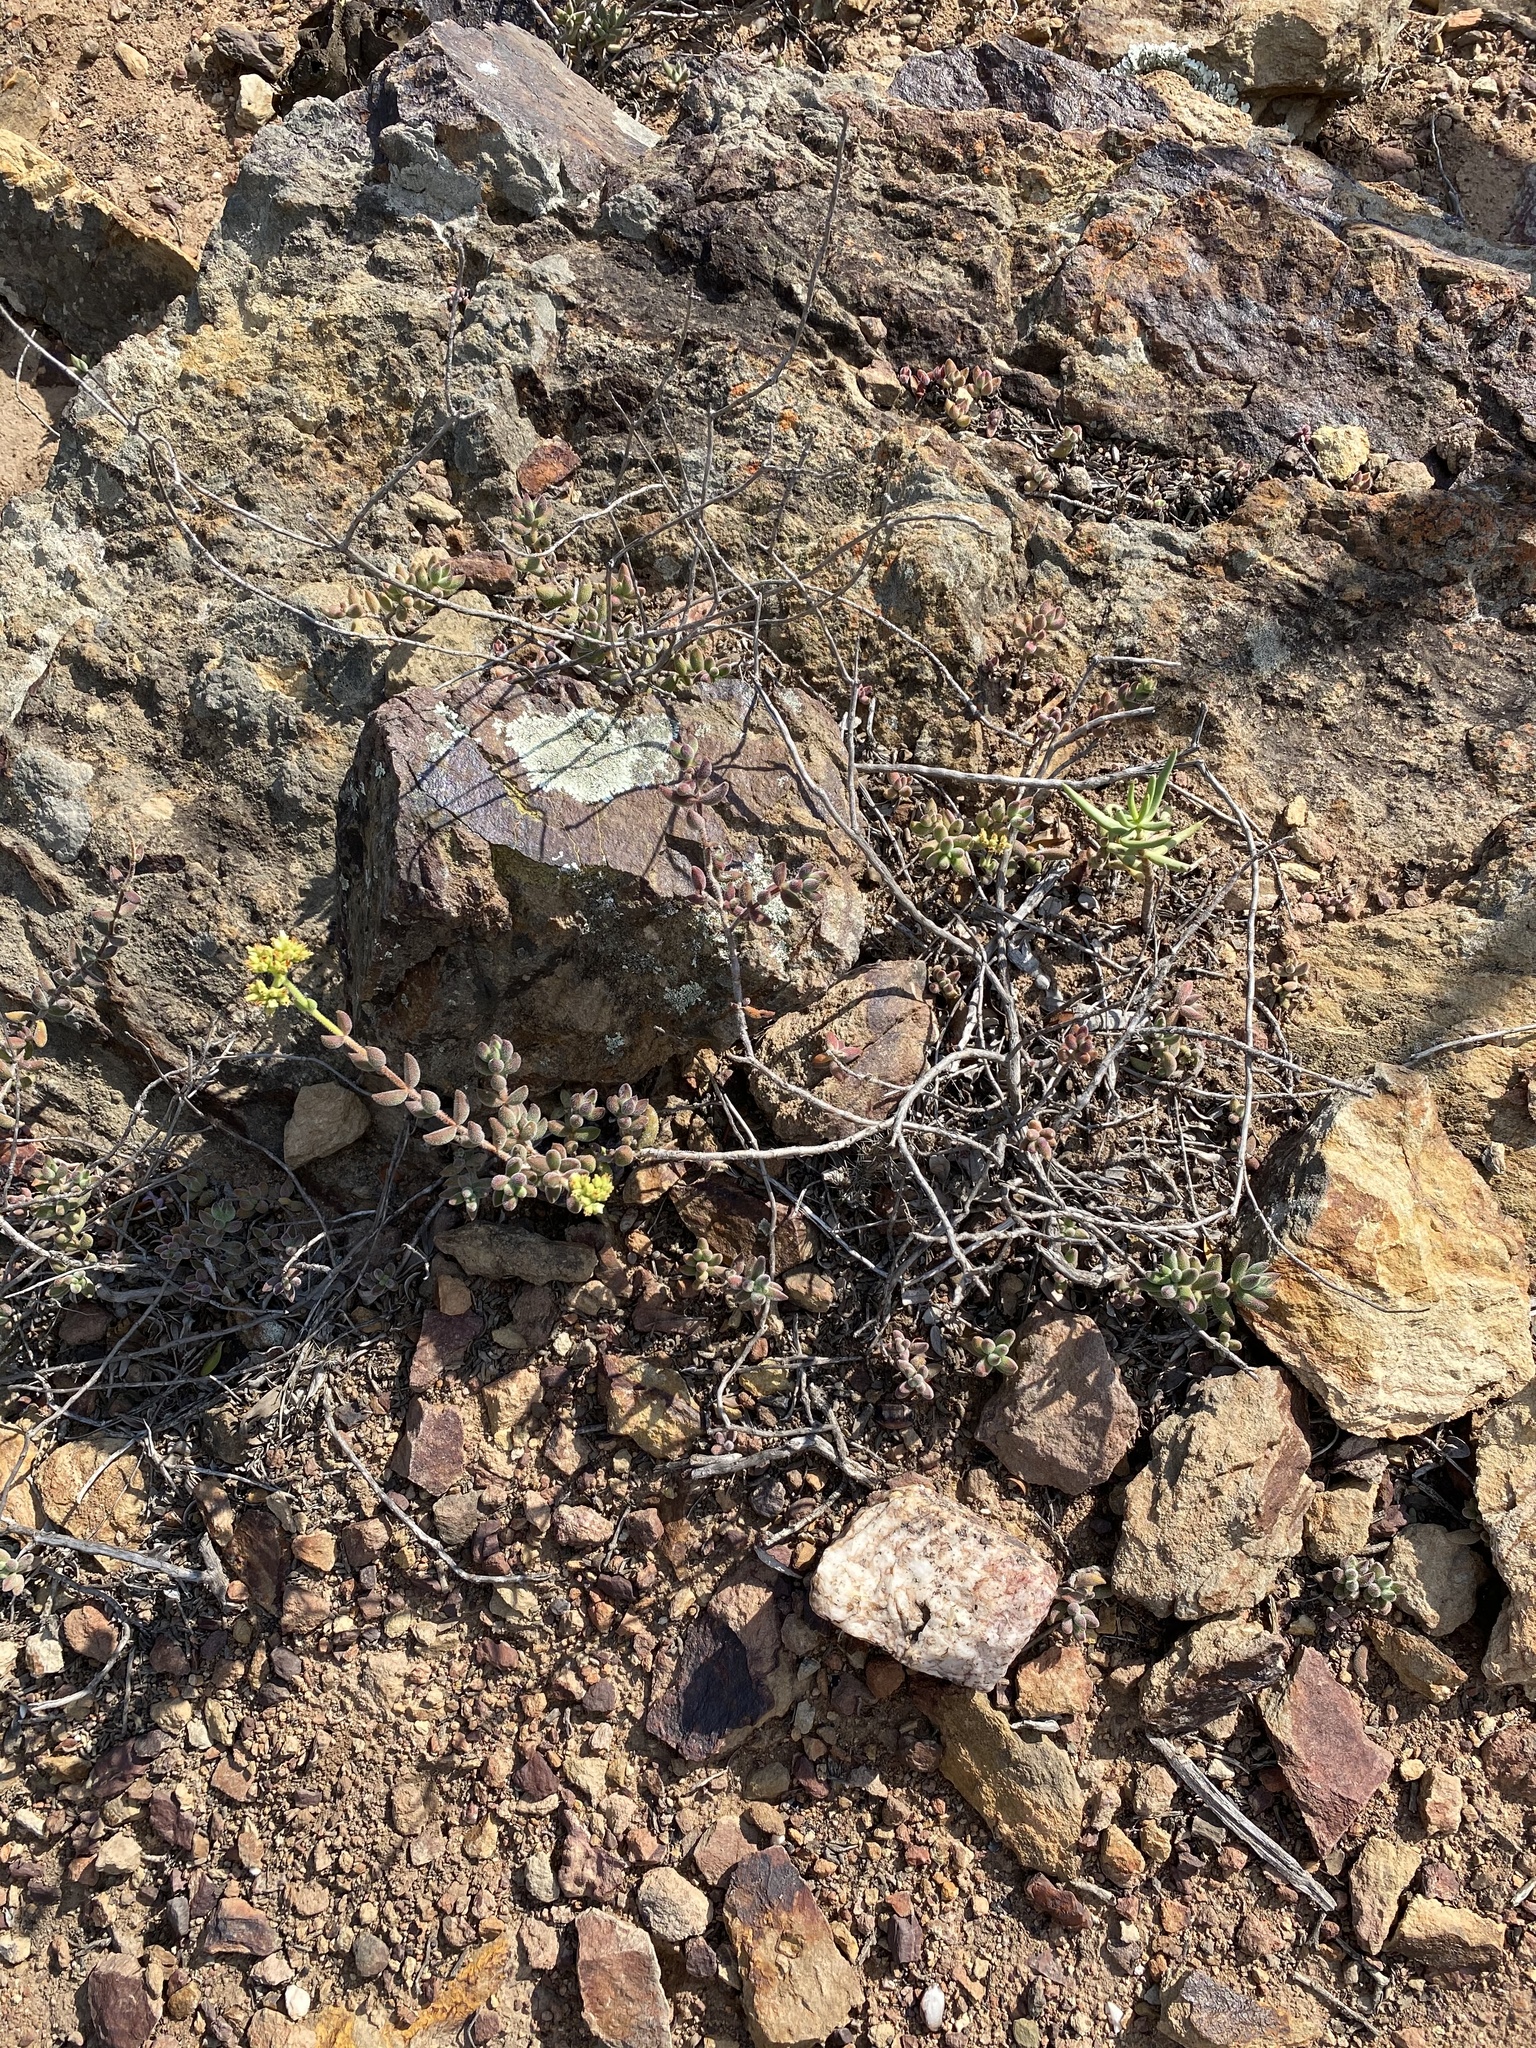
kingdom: Plantae
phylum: Tracheophyta
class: Magnoliopsida
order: Saxifragales
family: Crassulaceae
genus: Crassula
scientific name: Crassula mesembryanthoides
